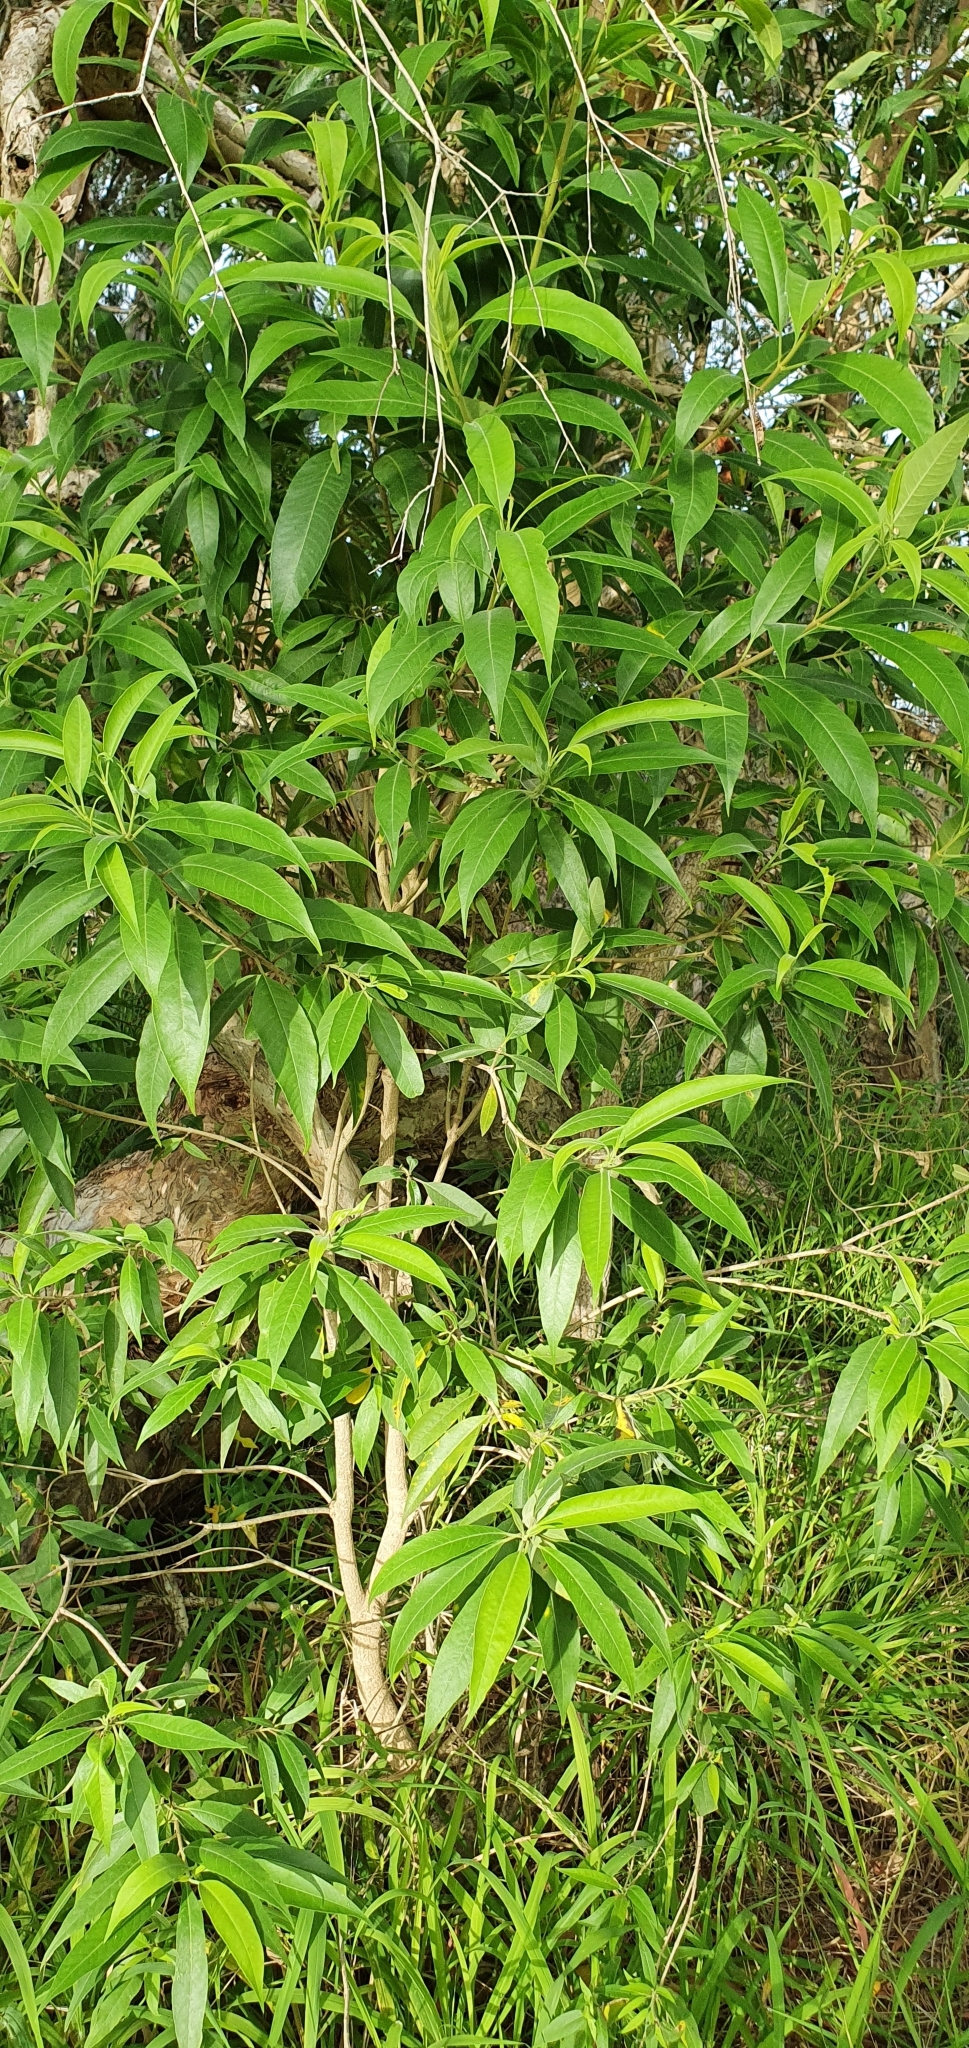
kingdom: Plantae
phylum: Tracheophyta
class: Magnoliopsida
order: Gentianales
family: Apocynaceae
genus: Alstonia
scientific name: Alstonia mollis
